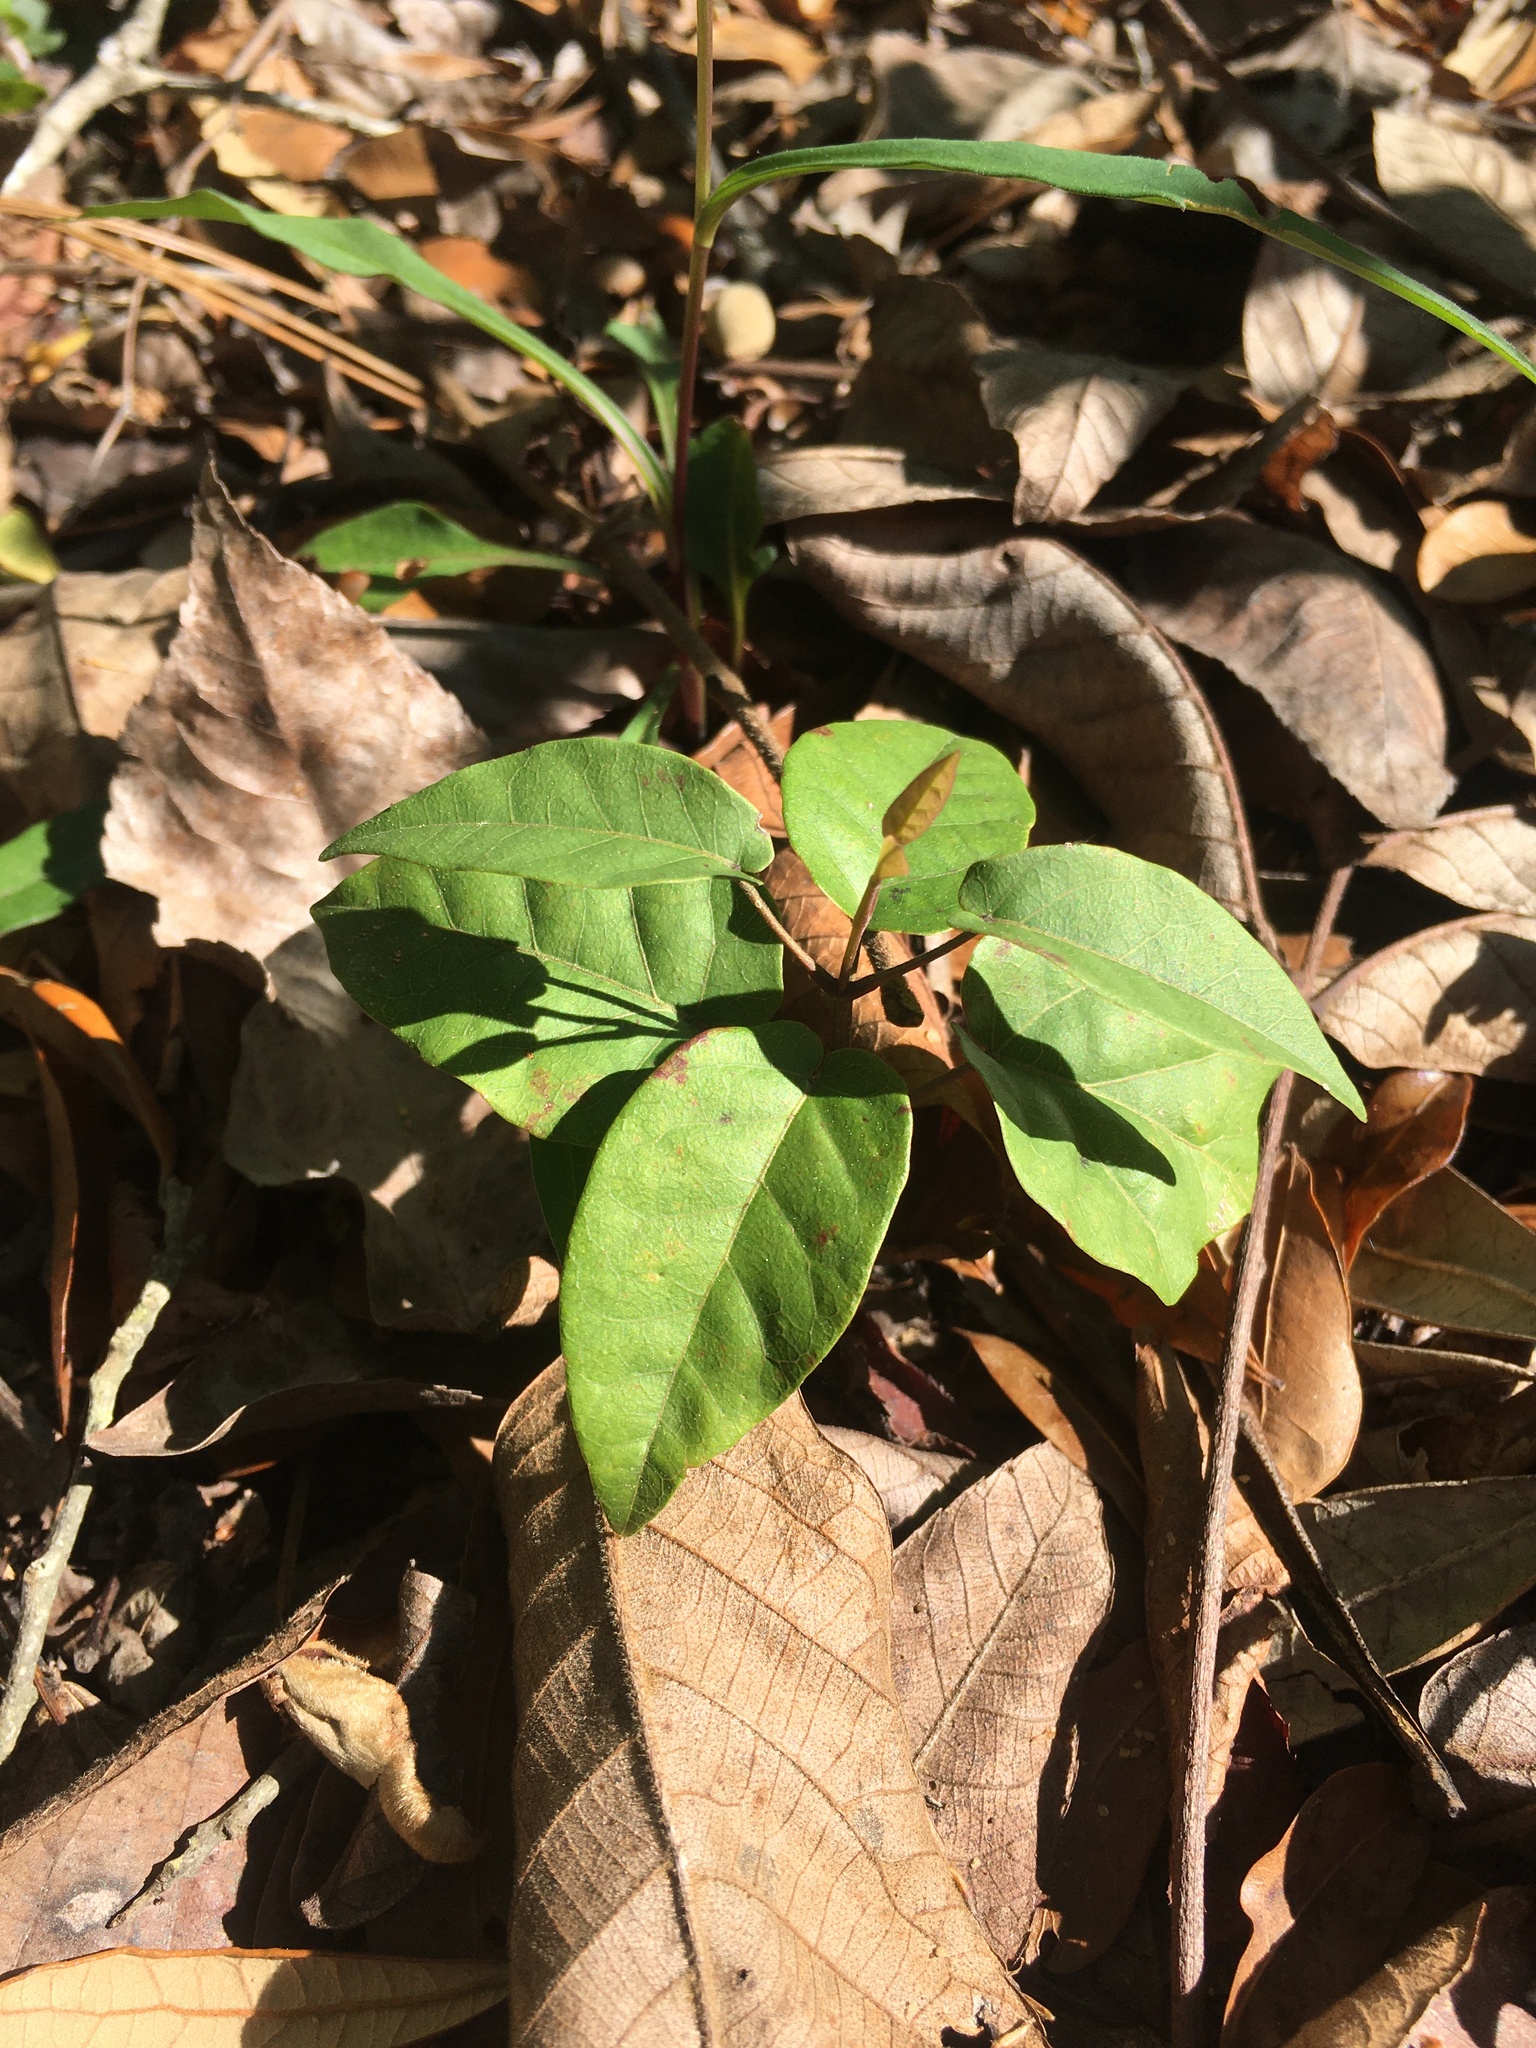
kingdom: Plantae
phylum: Tracheophyta
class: Magnoliopsida
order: Lamiales
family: Bignoniaceae
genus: Bignonia
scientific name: Bignonia capreolata
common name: Crossvine
